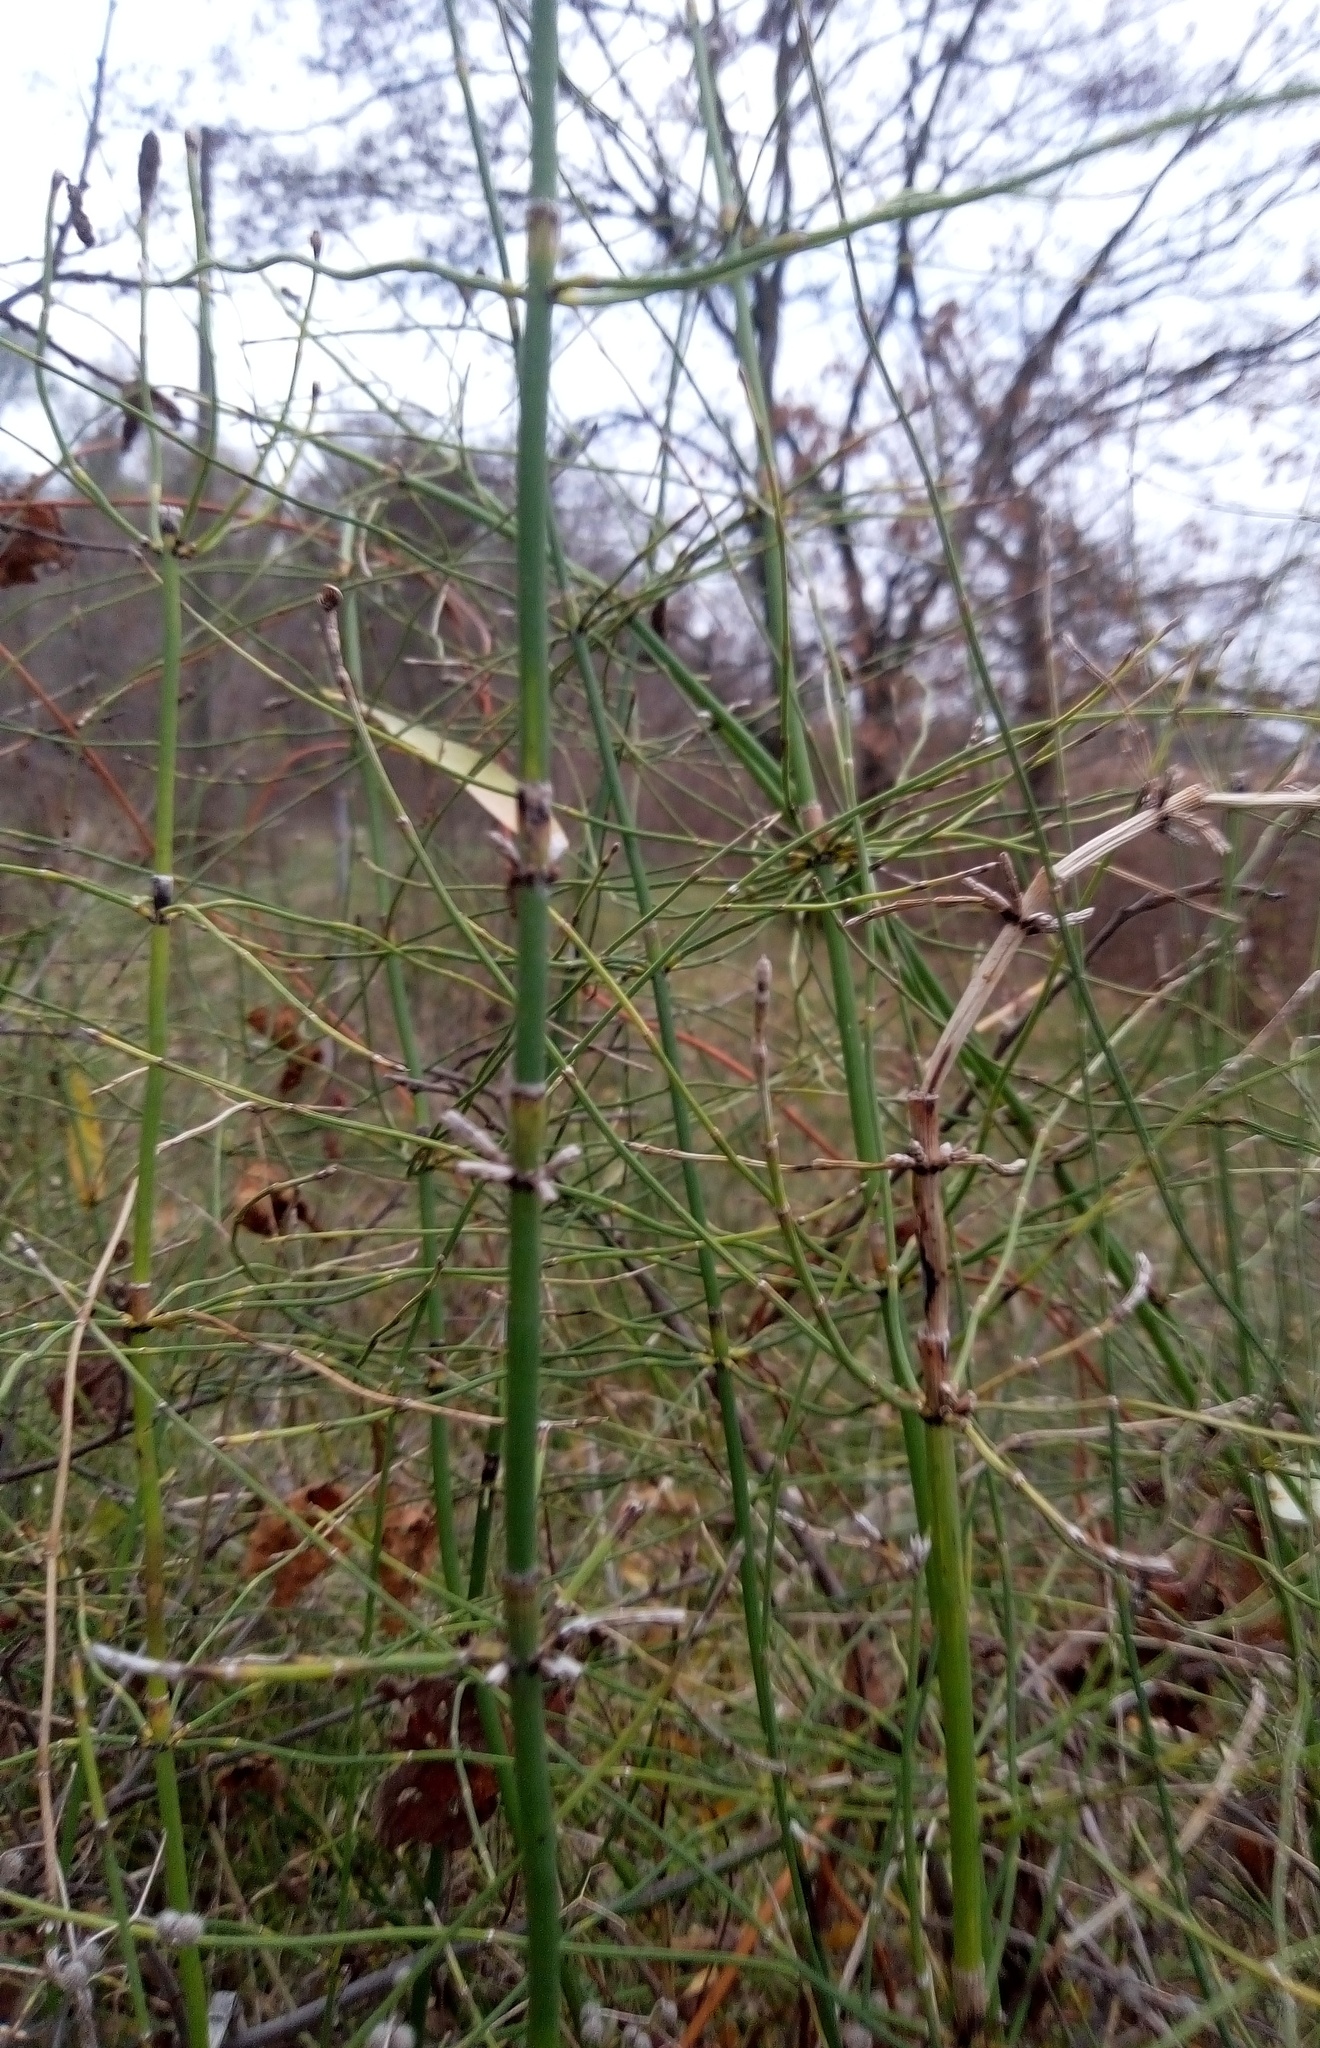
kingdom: Plantae
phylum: Tracheophyta
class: Polypodiopsida
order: Equisetales
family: Equisetaceae
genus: Equisetum
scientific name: Equisetum ramosissimum
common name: Branched horsetail
